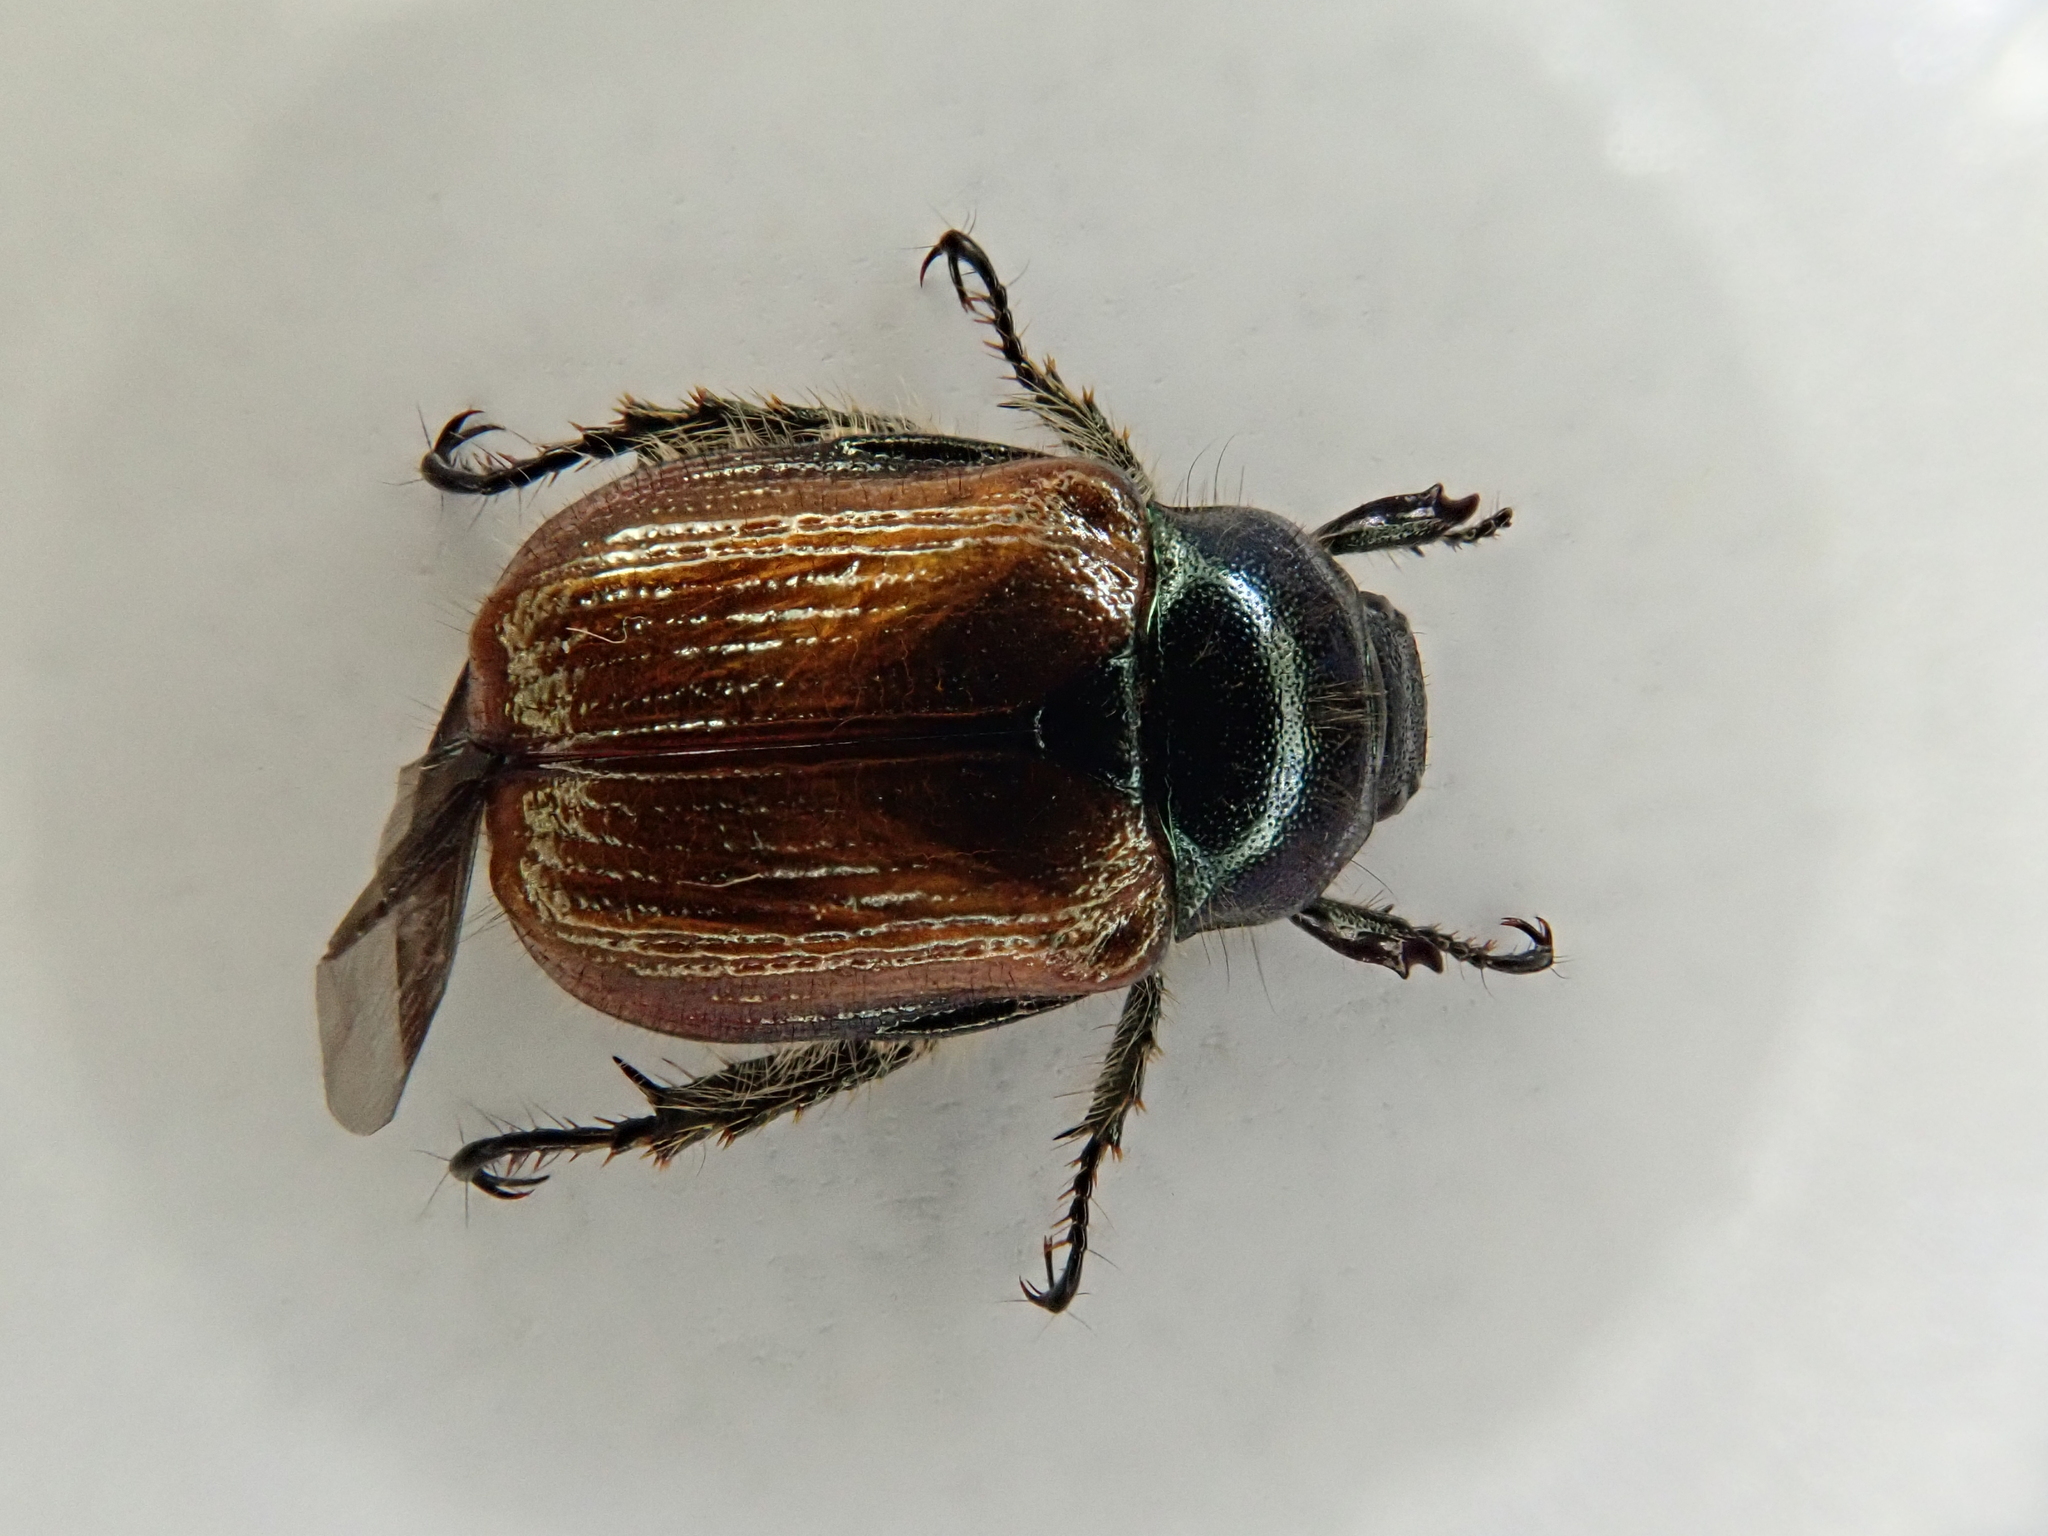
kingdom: Animalia
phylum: Arthropoda
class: Insecta
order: Coleoptera
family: Scarabaeidae
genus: Phyllopertha
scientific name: Phyllopertha horticola
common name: Garden chafer
